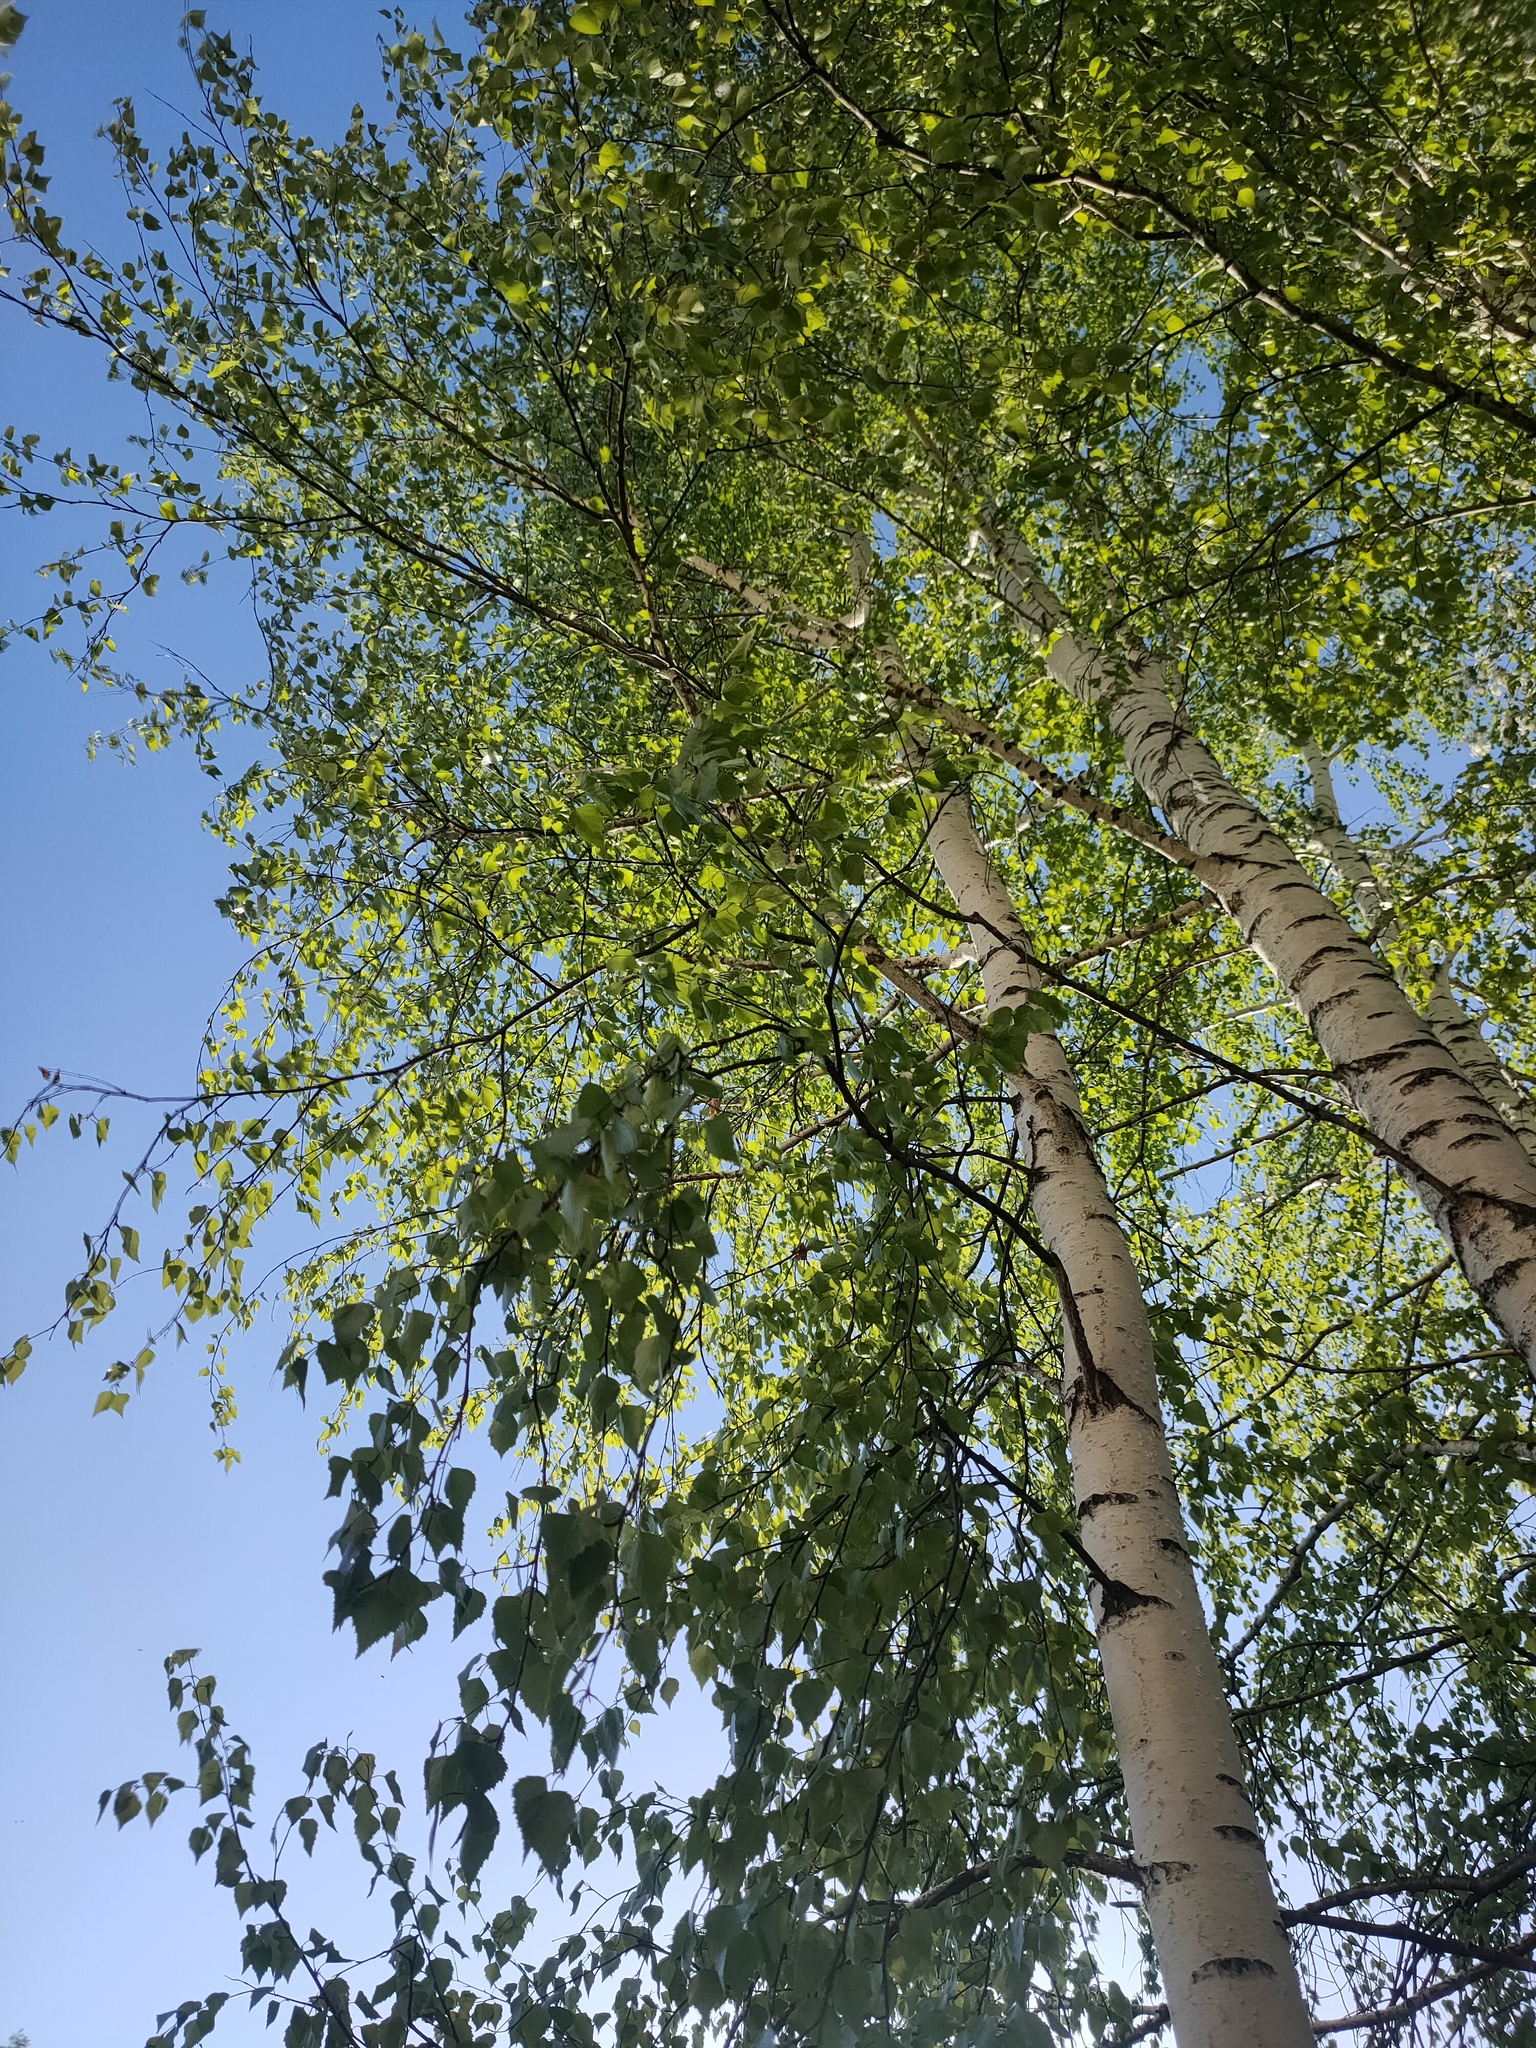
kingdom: Plantae
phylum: Tracheophyta
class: Magnoliopsida
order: Fagales
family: Betulaceae
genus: Betula
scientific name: Betula pendula
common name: Silver birch
